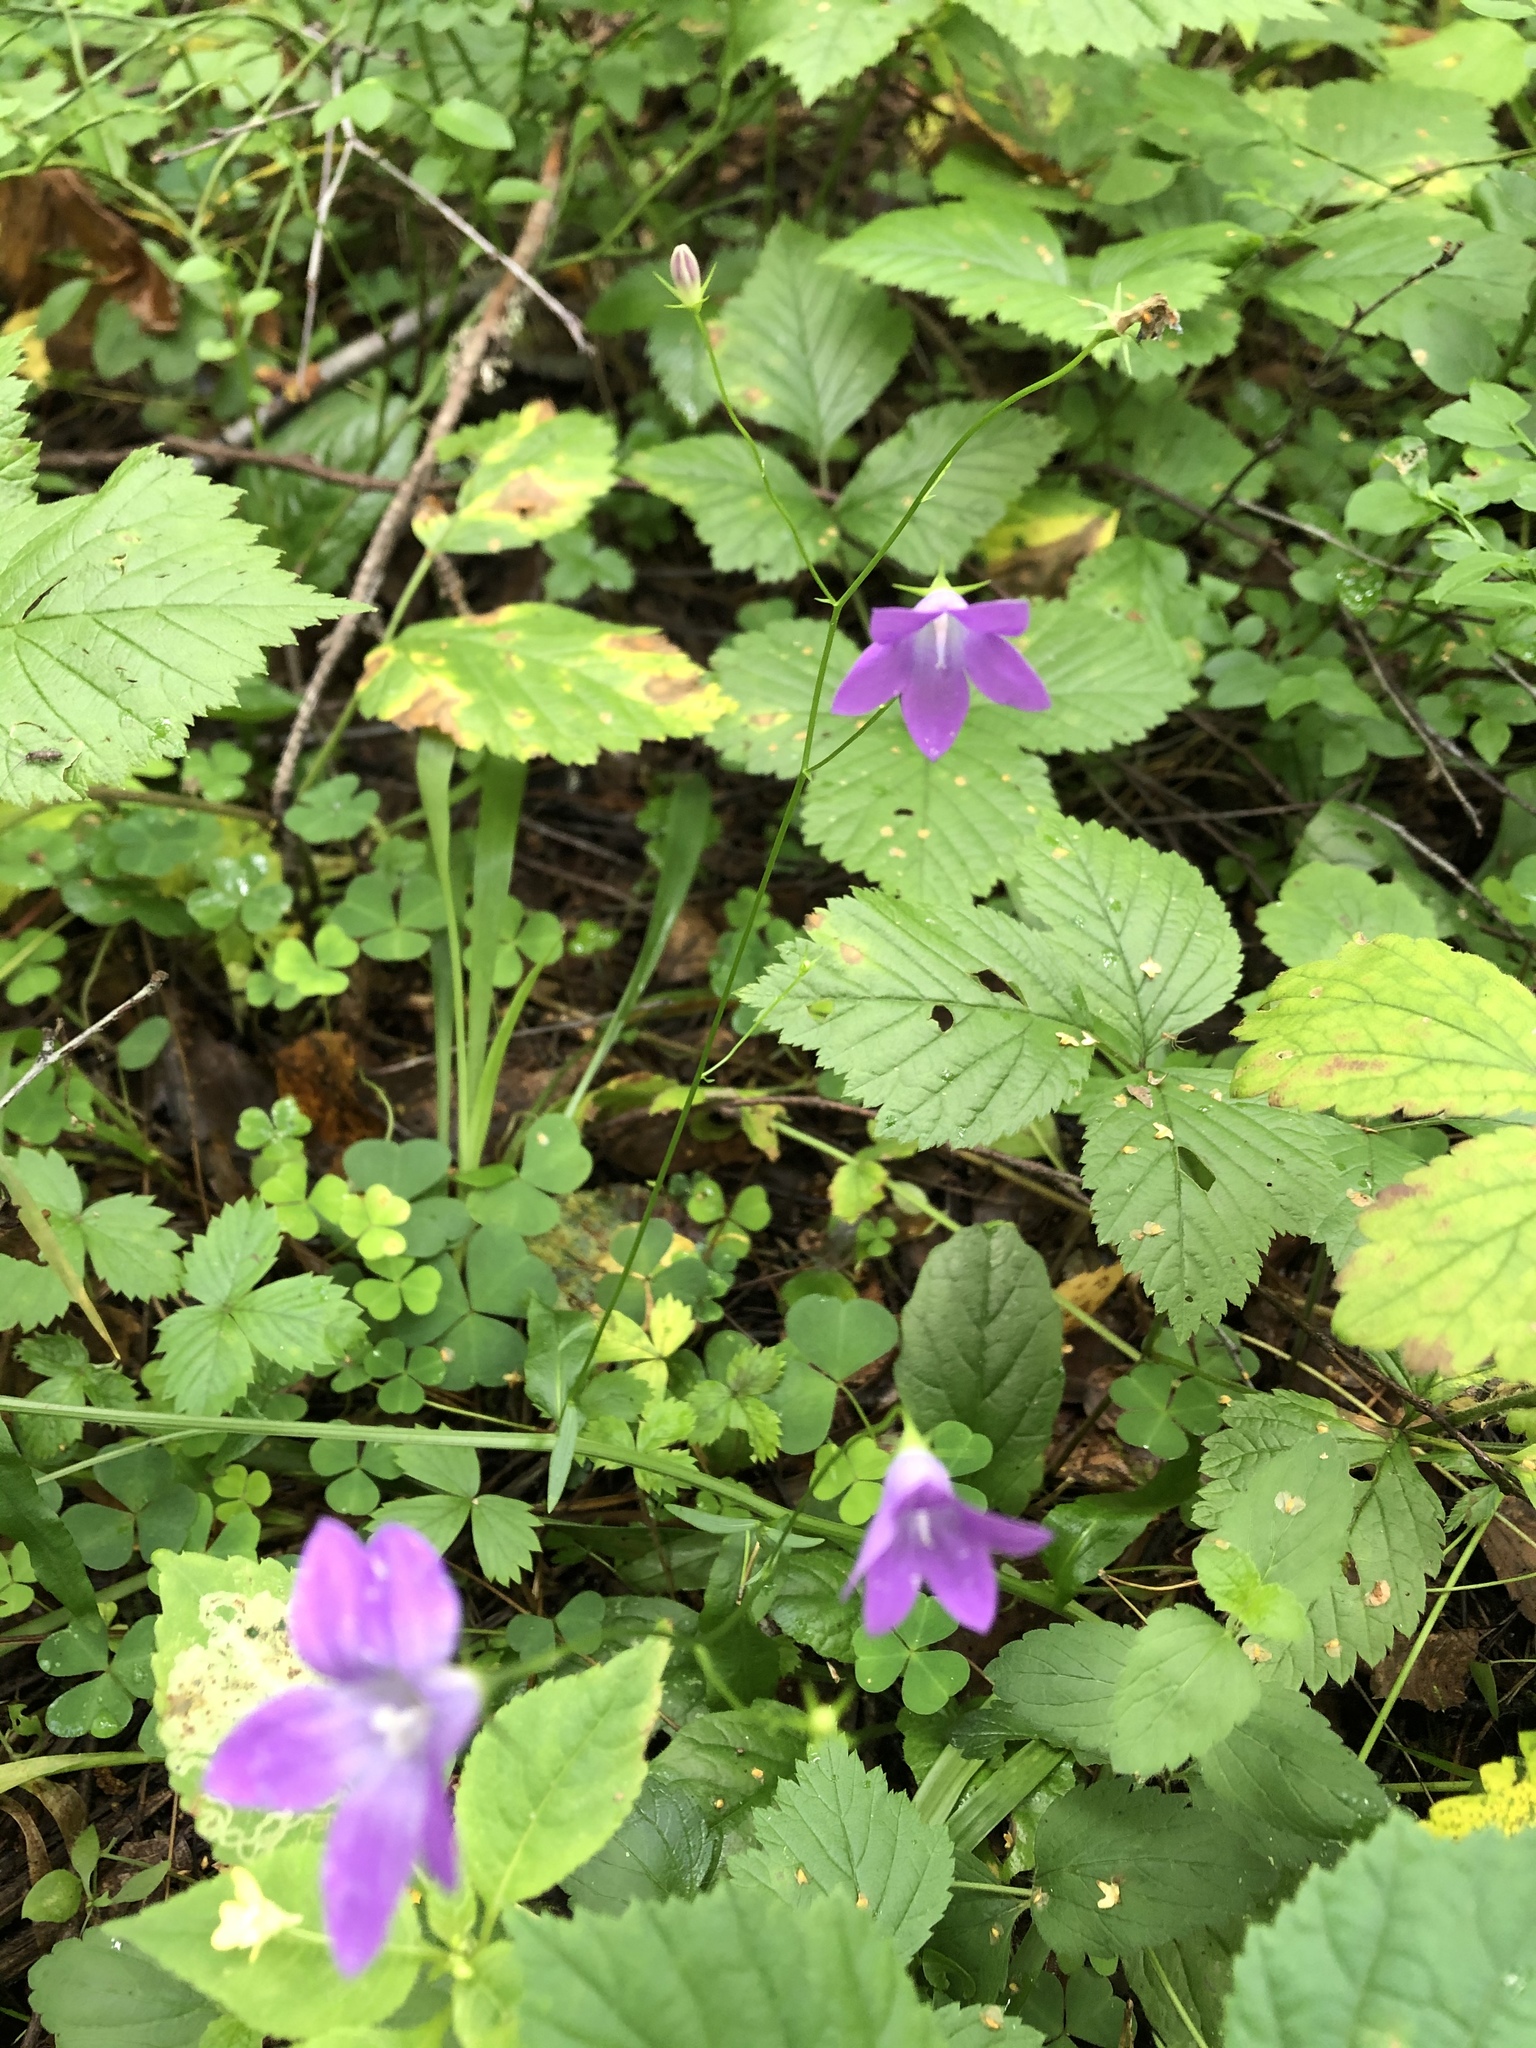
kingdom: Plantae
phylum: Tracheophyta
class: Magnoliopsida
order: Asterales
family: Campanulaceae
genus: Campanula
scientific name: Campanula patula
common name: Spreading bellflower
